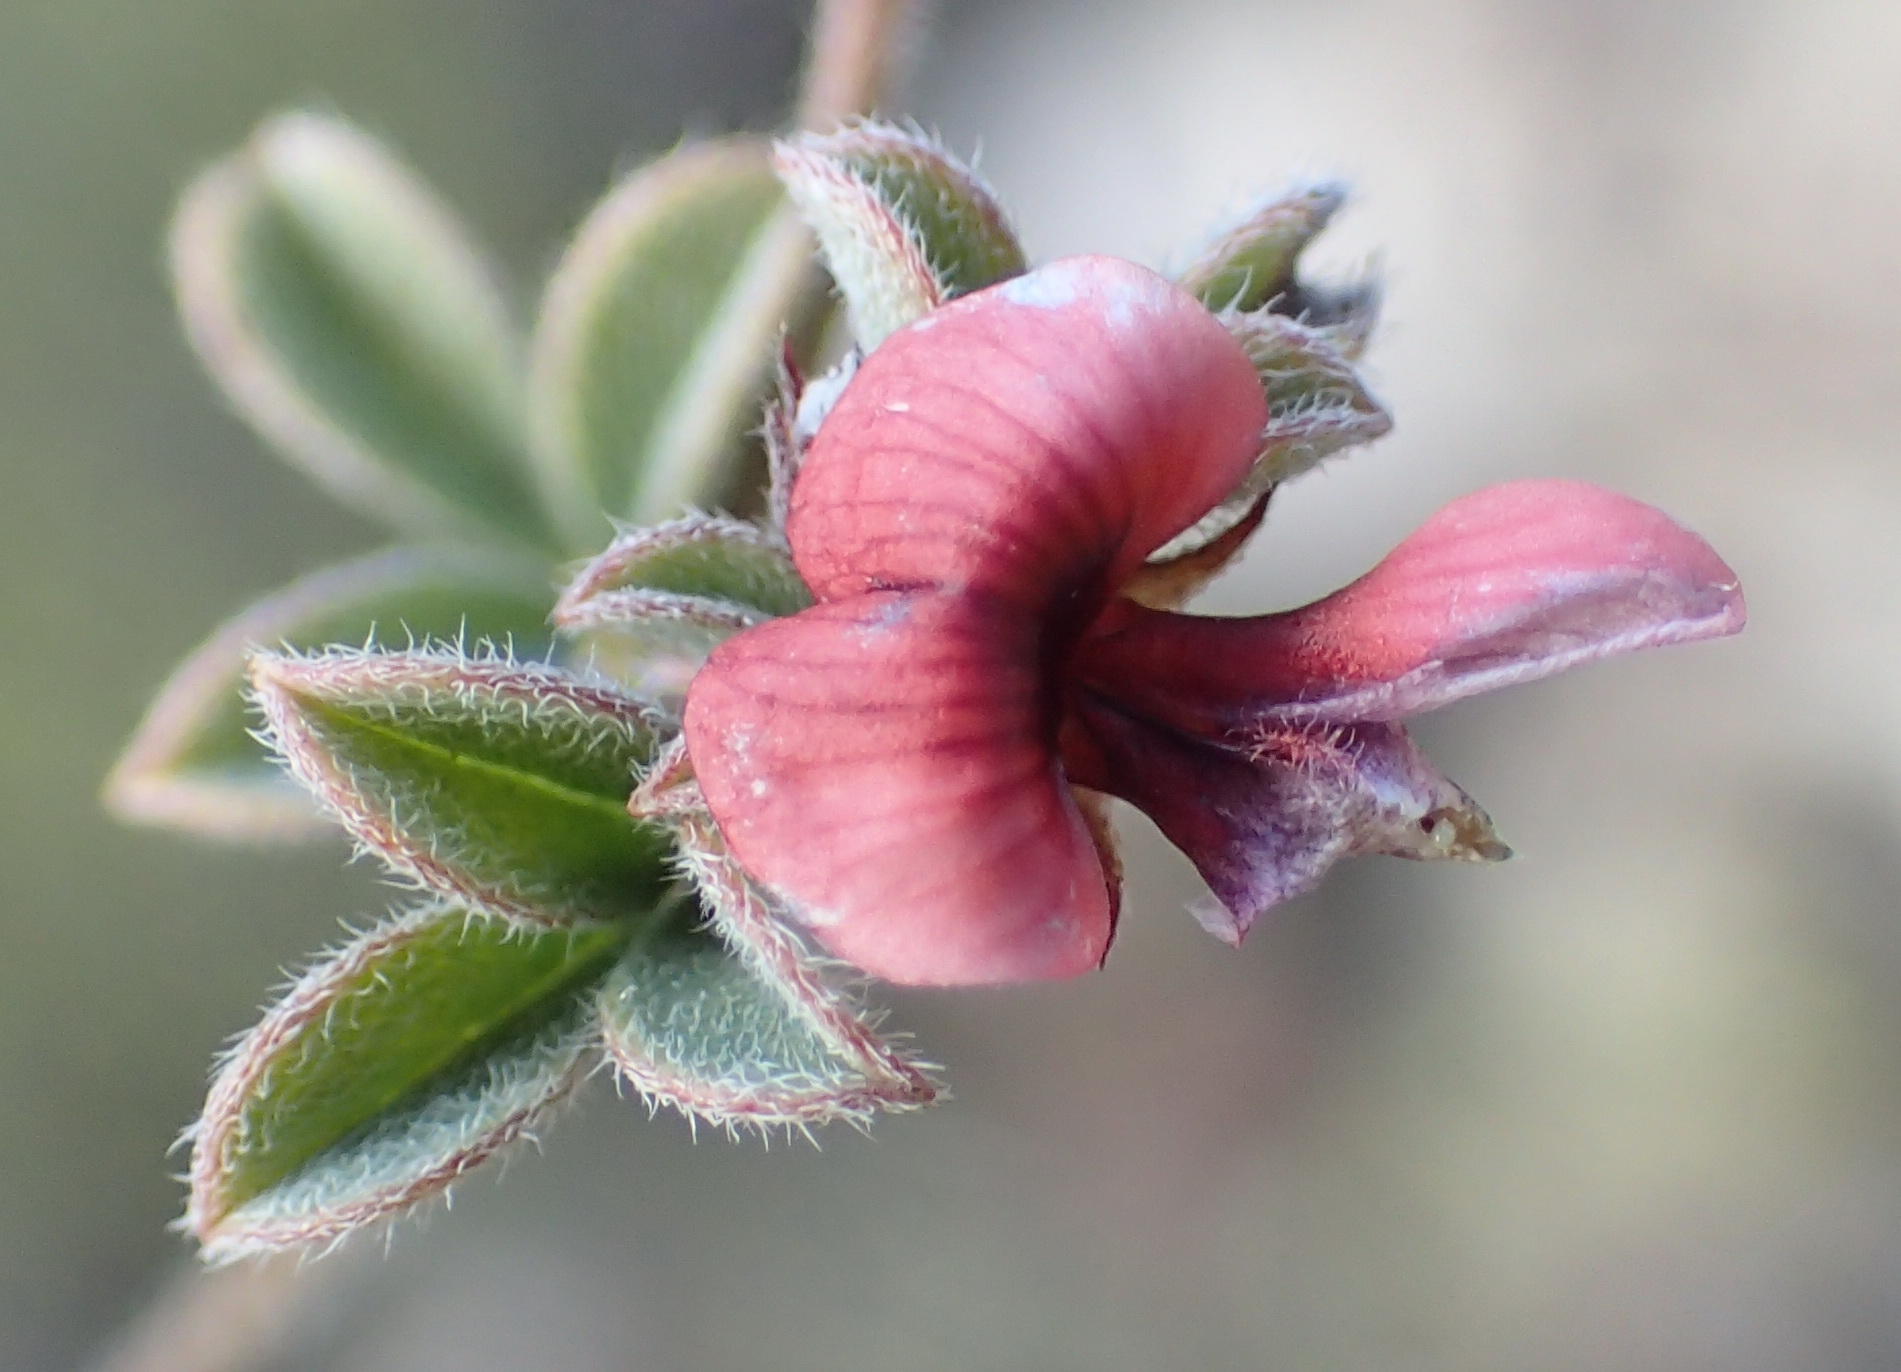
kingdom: Plantae
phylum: Tracheophyta
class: Magnoliopsida
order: Fabales
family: Fabaceae
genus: Indigofera
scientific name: Indigofera priorii
